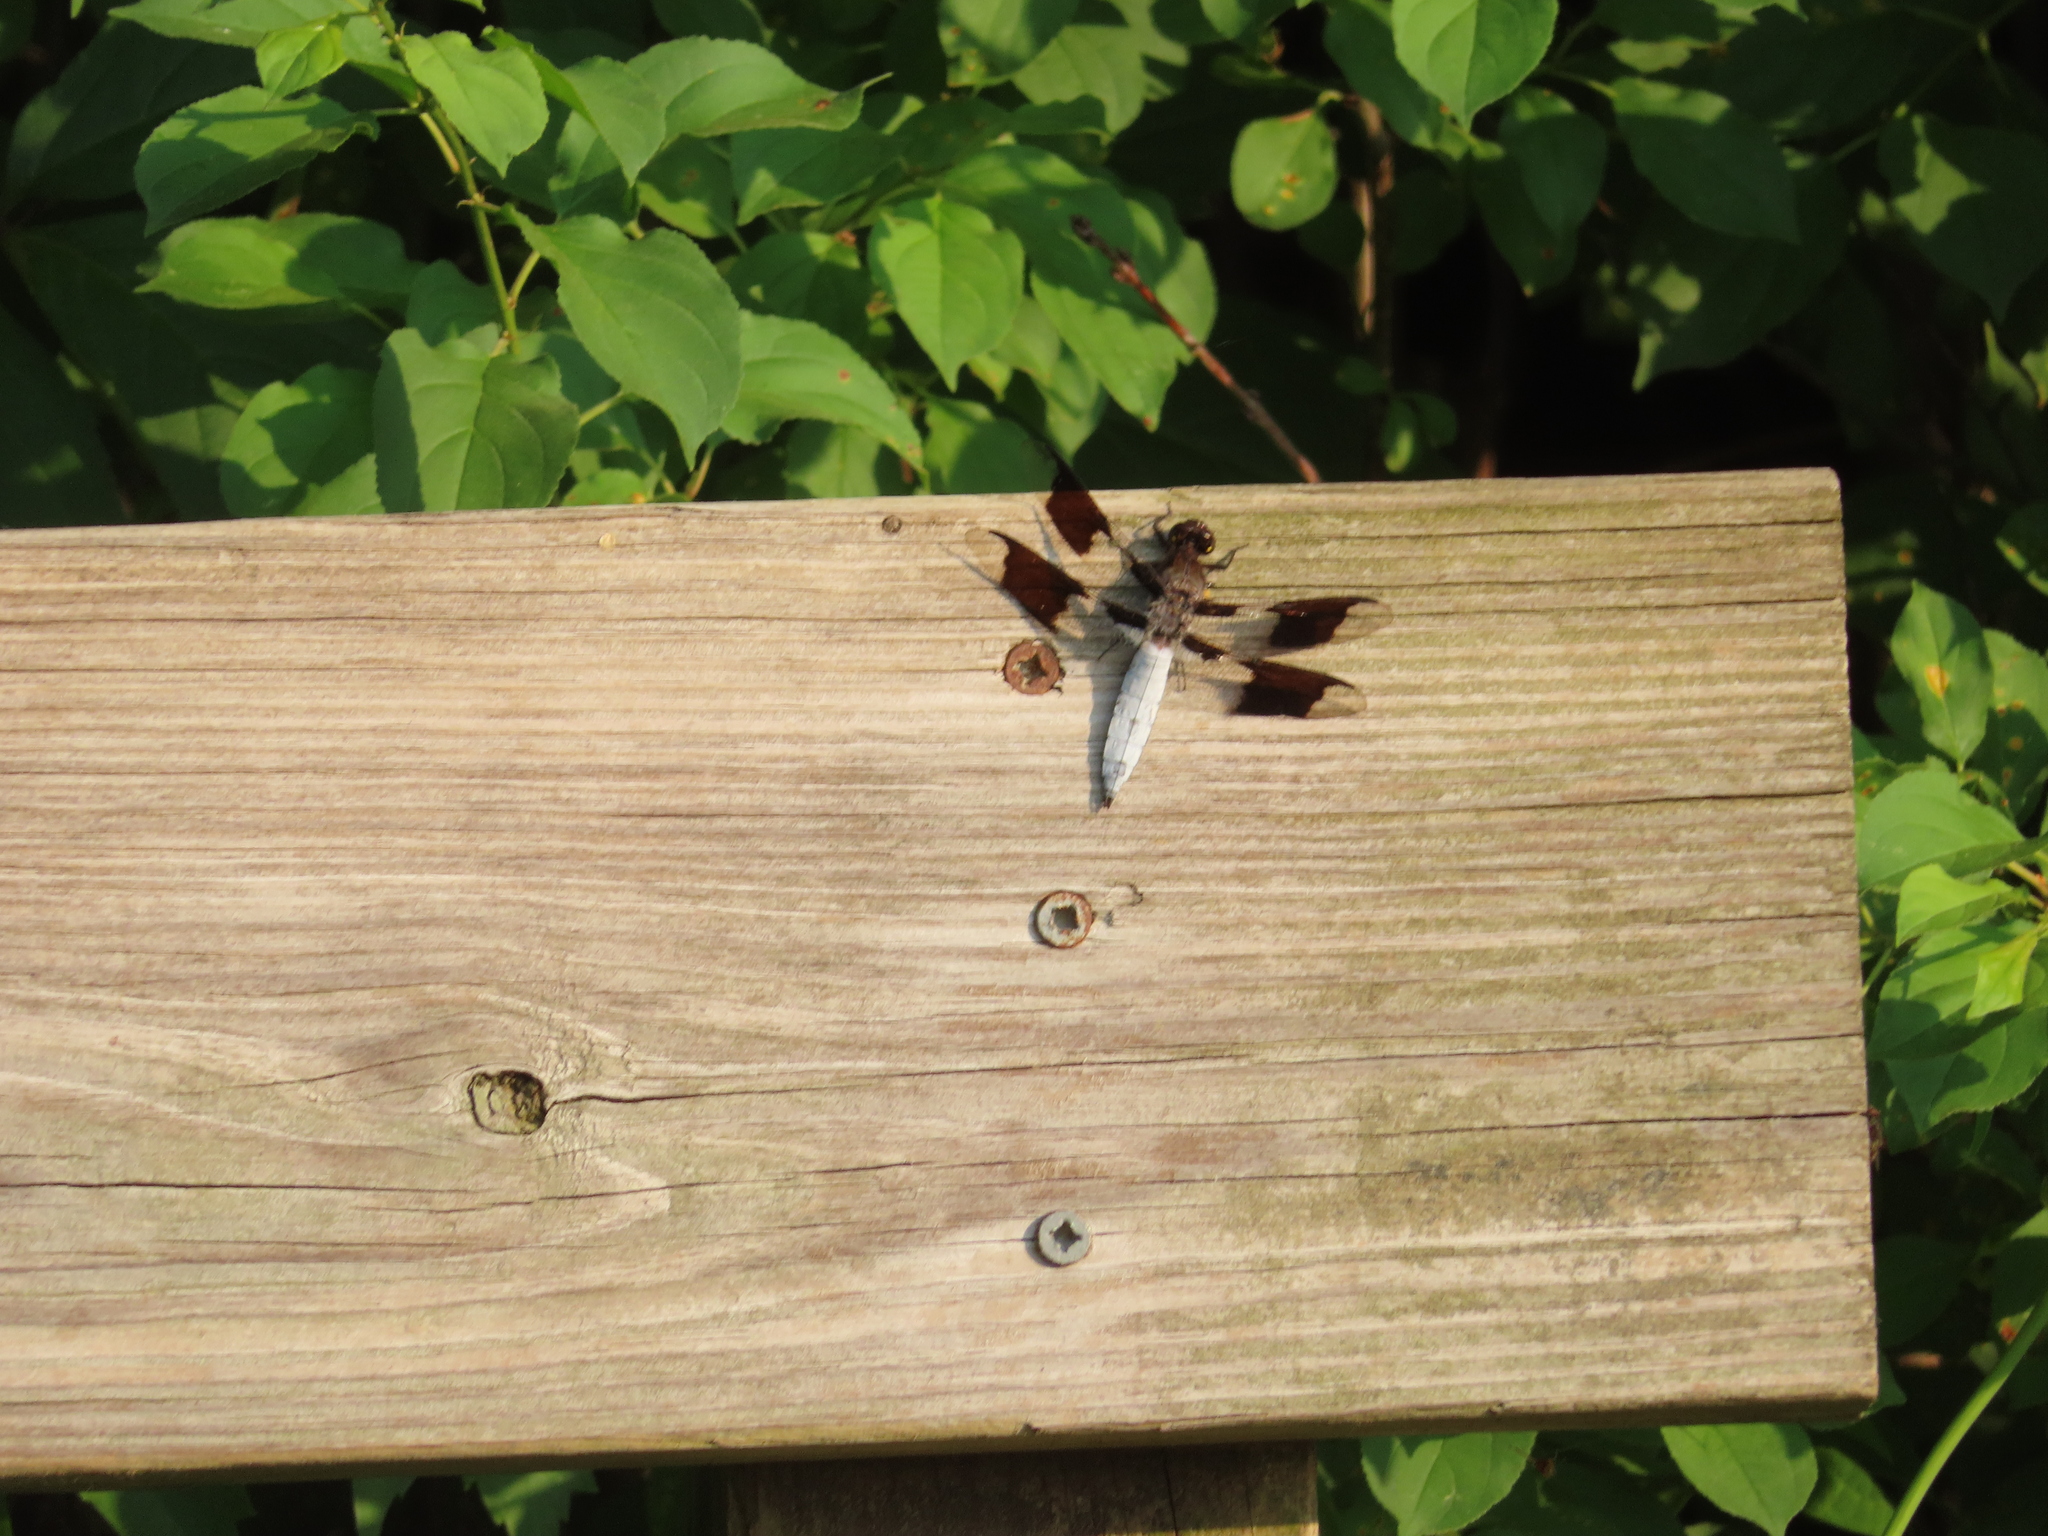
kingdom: Animalia
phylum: Arthropoda
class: Insecta
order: Odonata
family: Libellulidae
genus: Plathemis
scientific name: Plathemis lydia
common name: Common whitetail
